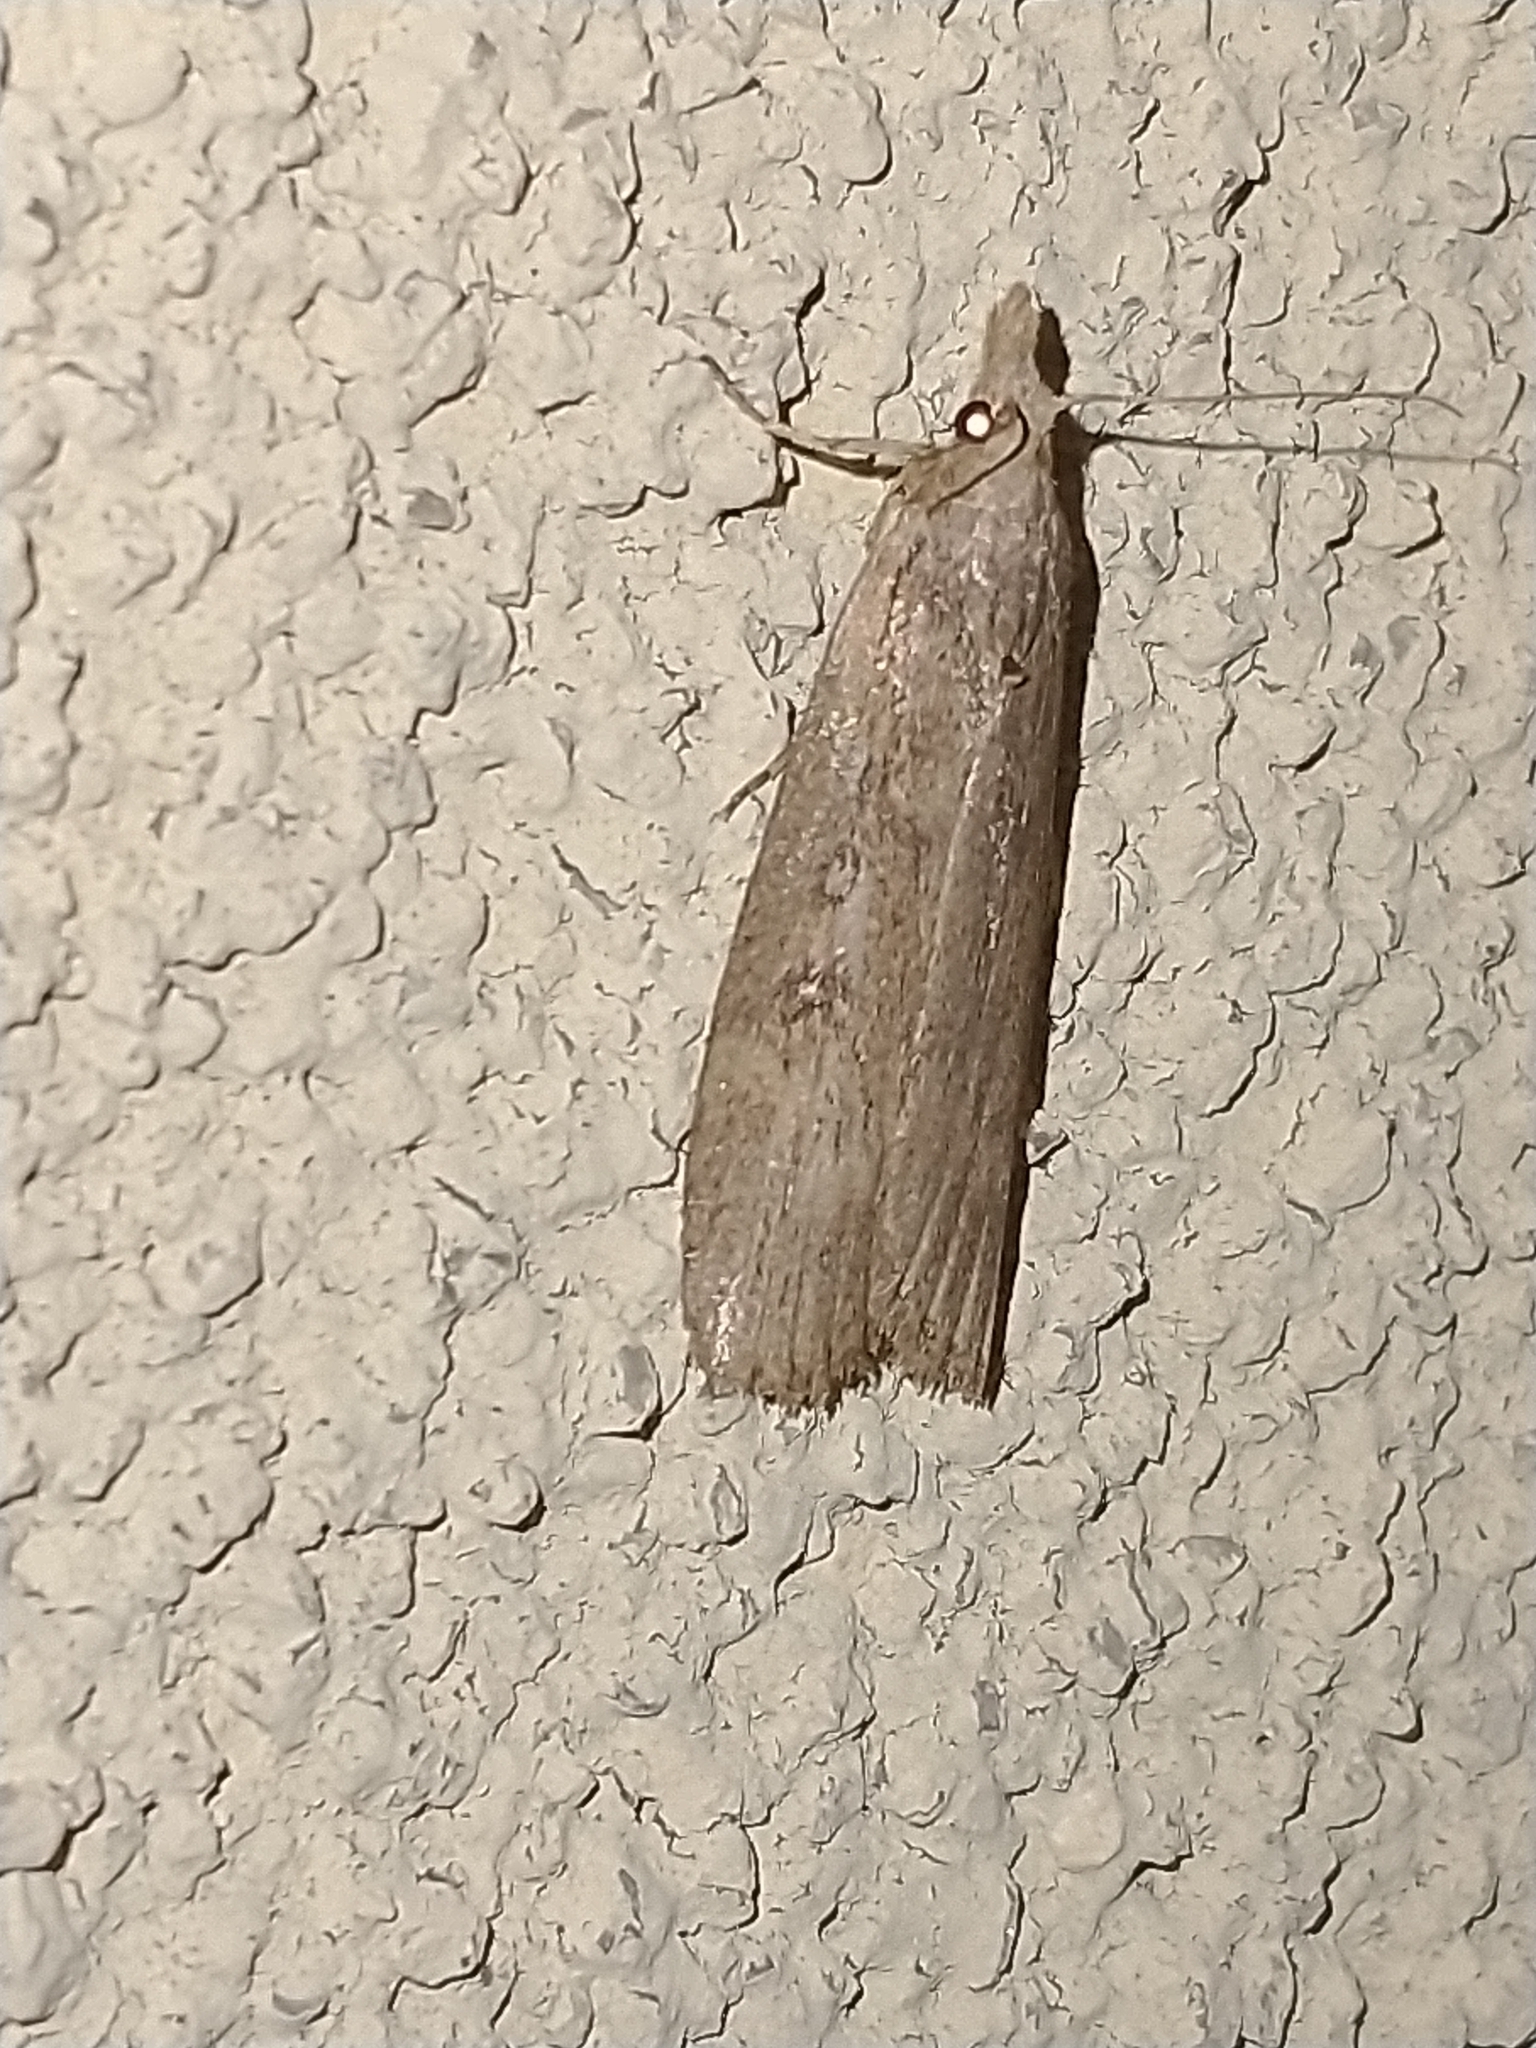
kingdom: Animalia
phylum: Arthropoda
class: Insecta
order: Lepidoptera
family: Pyralidae
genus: Lamoria
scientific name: Lamoria anella
